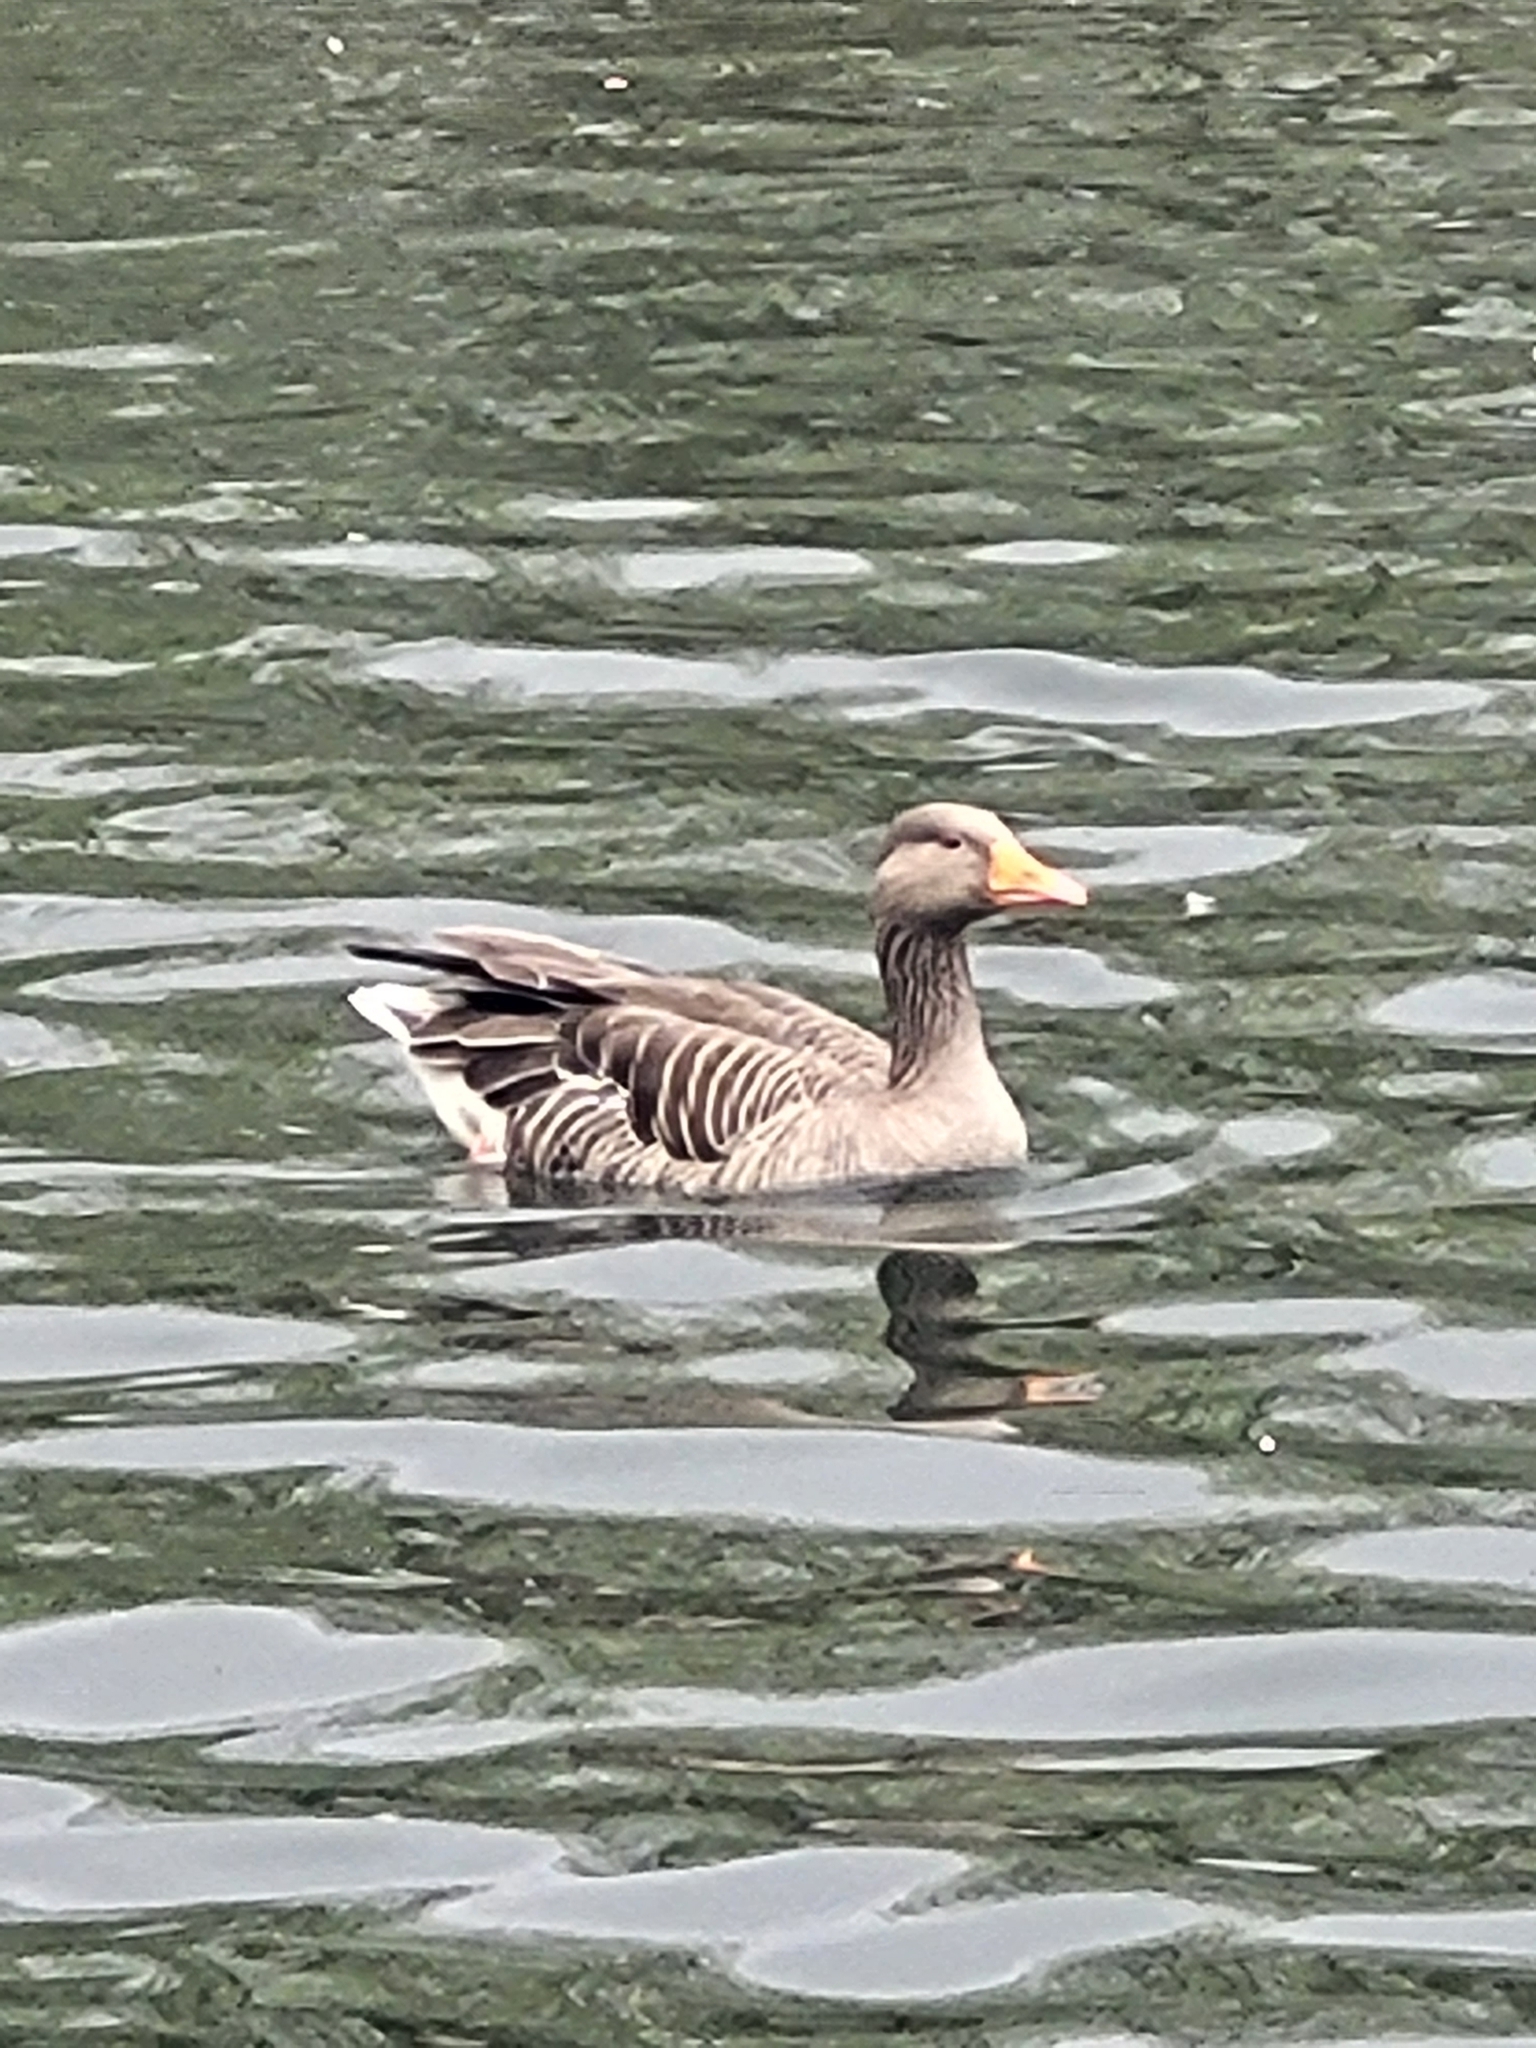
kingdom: Animalia
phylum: Chordata
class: Aves
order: Anseriformes
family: Anatidae
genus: Anser
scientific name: Anser anser
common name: Greylag goose
